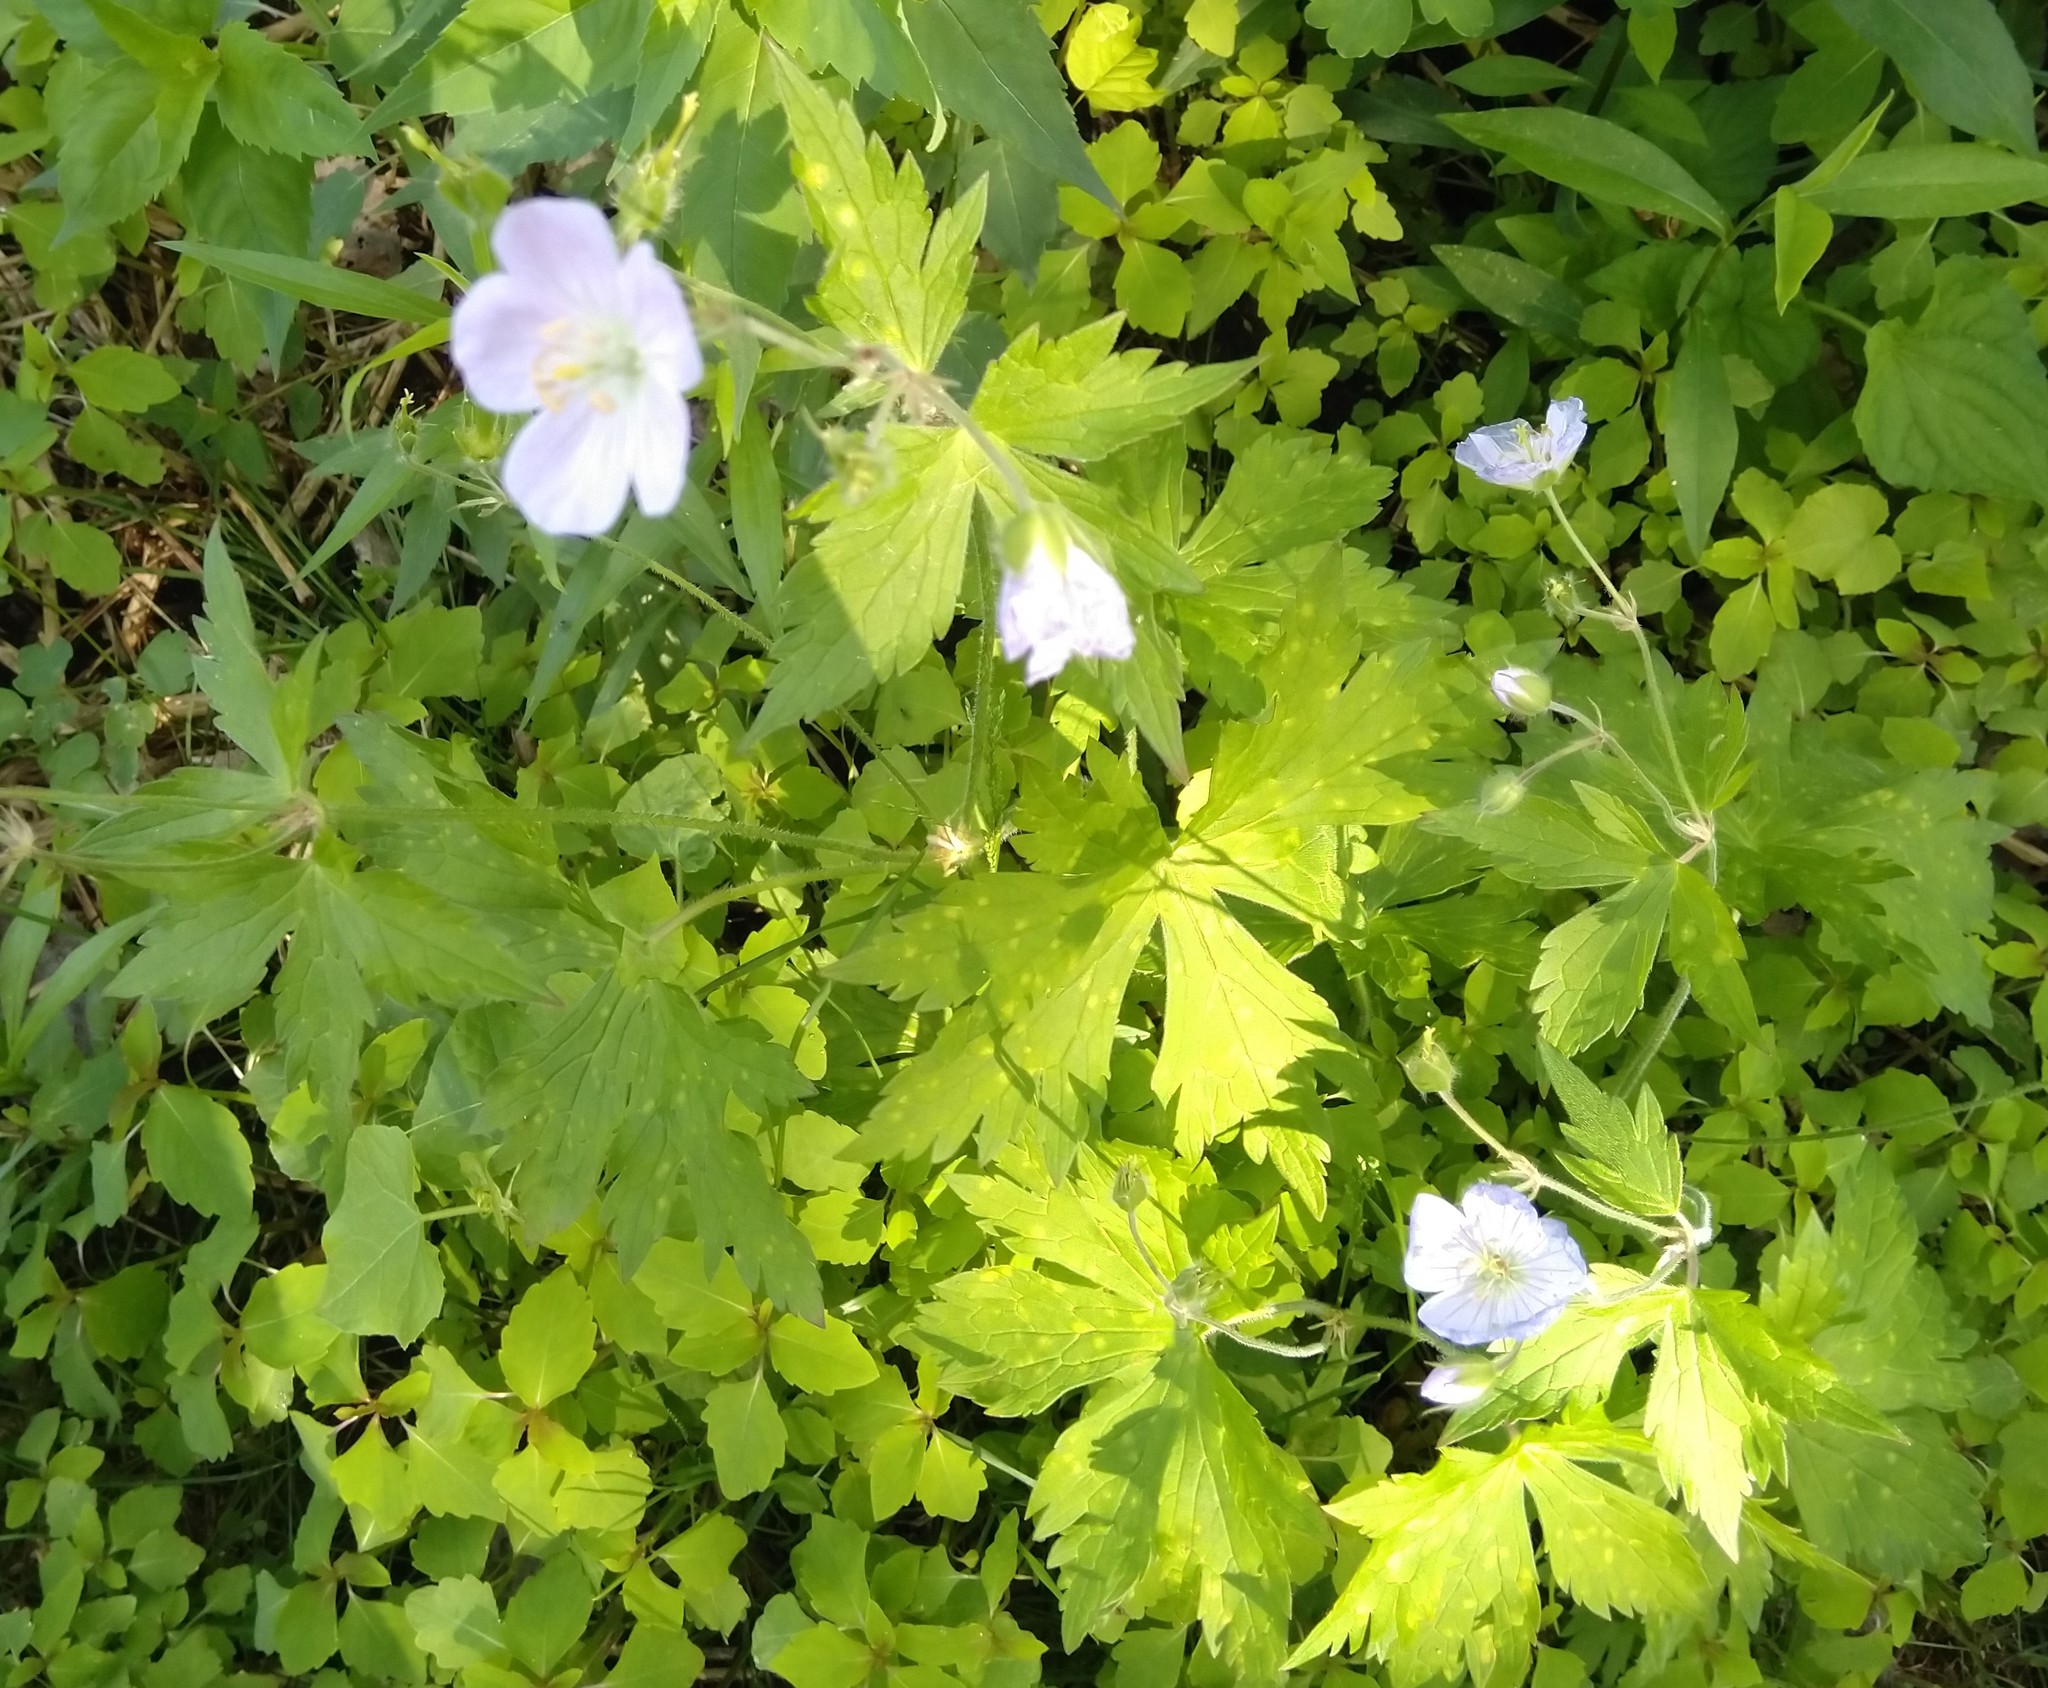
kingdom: Plantae
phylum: Tracheophyta
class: Magnoliopsida
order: Geraniales
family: Geraniaceae
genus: Geranium
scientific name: Geranium maculatum
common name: Spotted geranium
